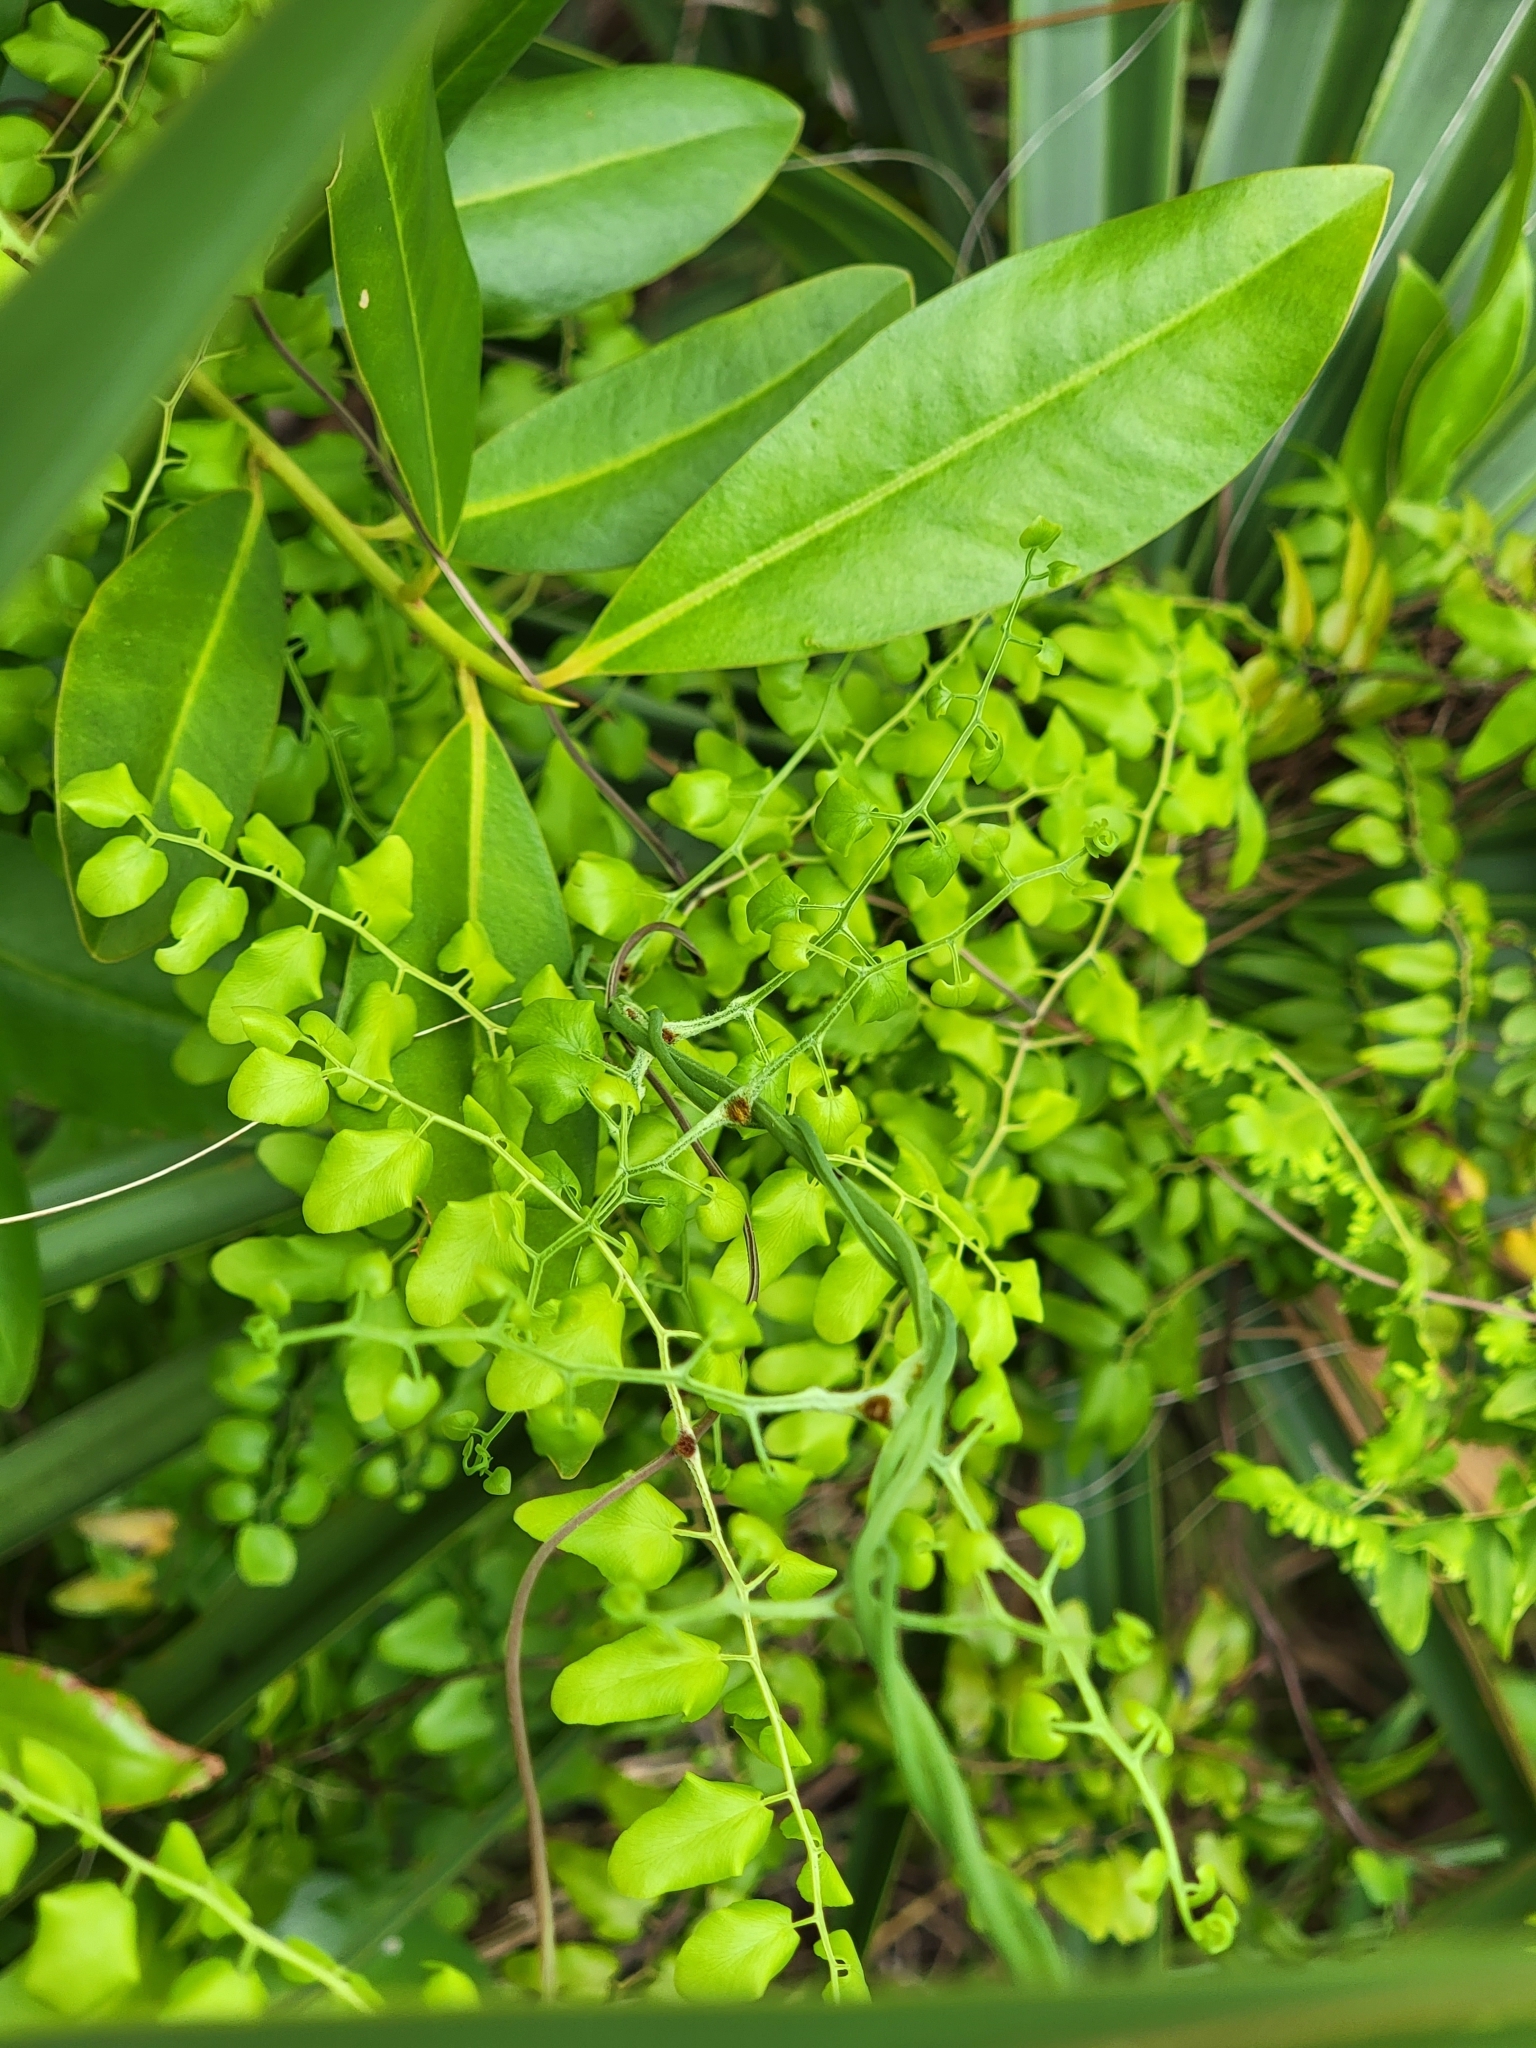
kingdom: Plantae
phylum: Tracheophyta
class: Polypodiopsida
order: Schizaeales
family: Lygodiaceae
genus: Lygodium
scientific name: Lygodium microphyllum
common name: Small-leaf climbing fern
